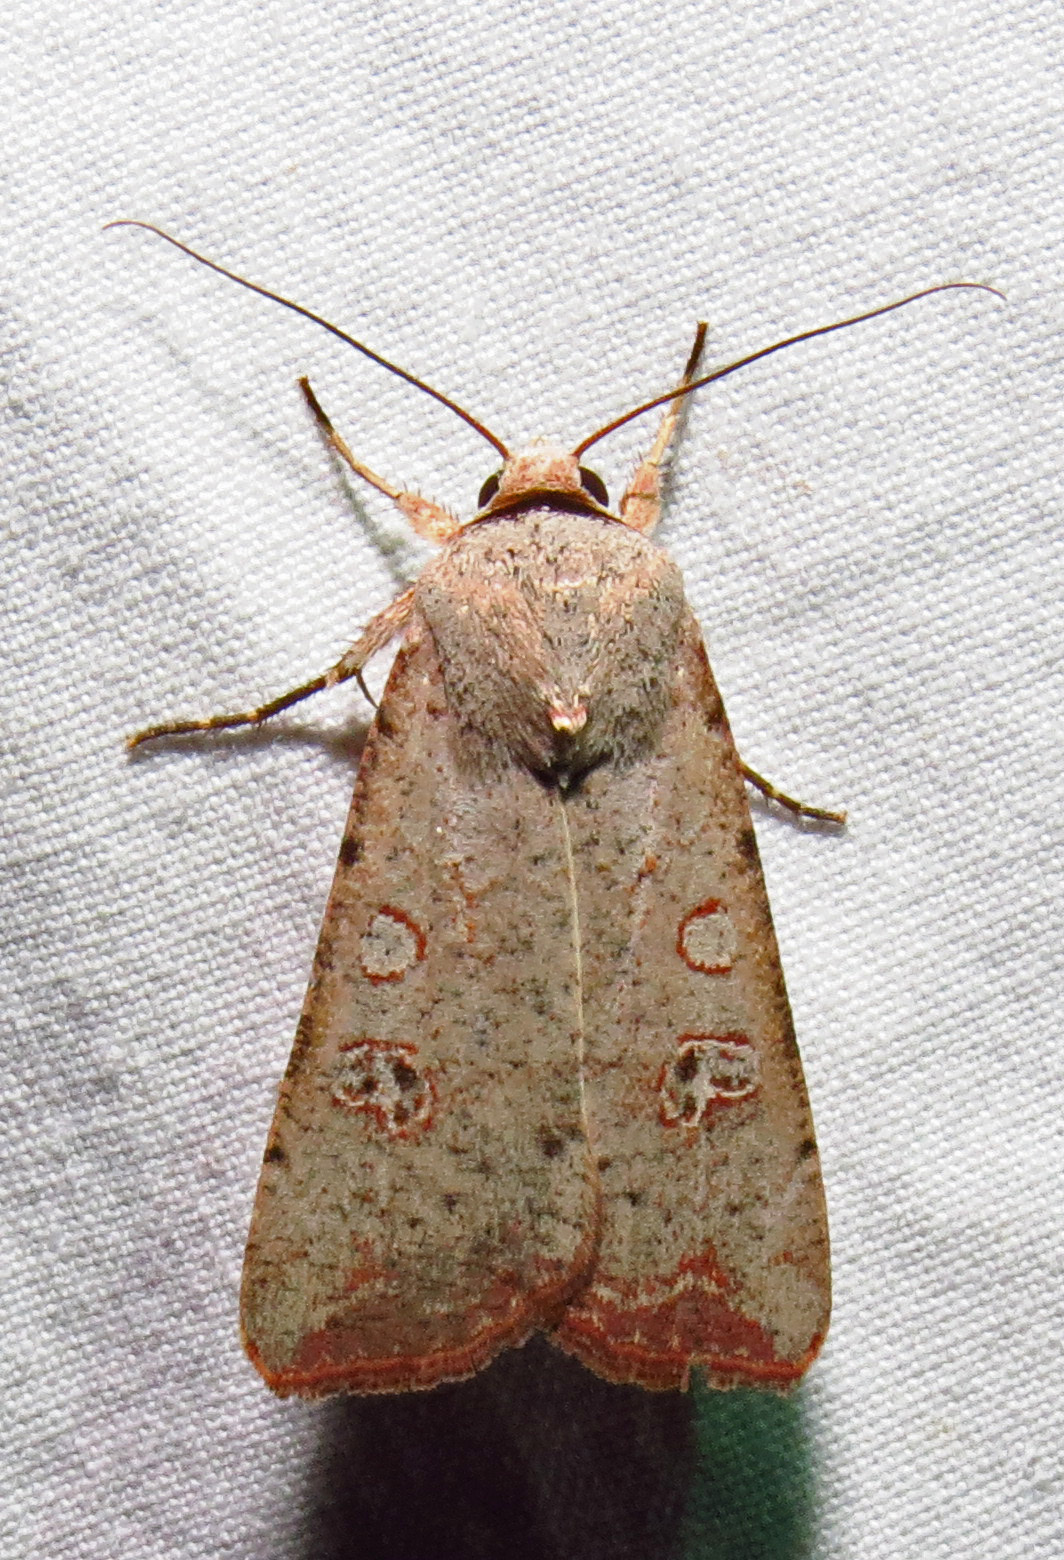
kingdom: Animalia
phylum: Arthropoda
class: Insecta
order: Lepidoptera
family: Noctuidae
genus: Anicla
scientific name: Anicla infecta
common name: Green cutworm
